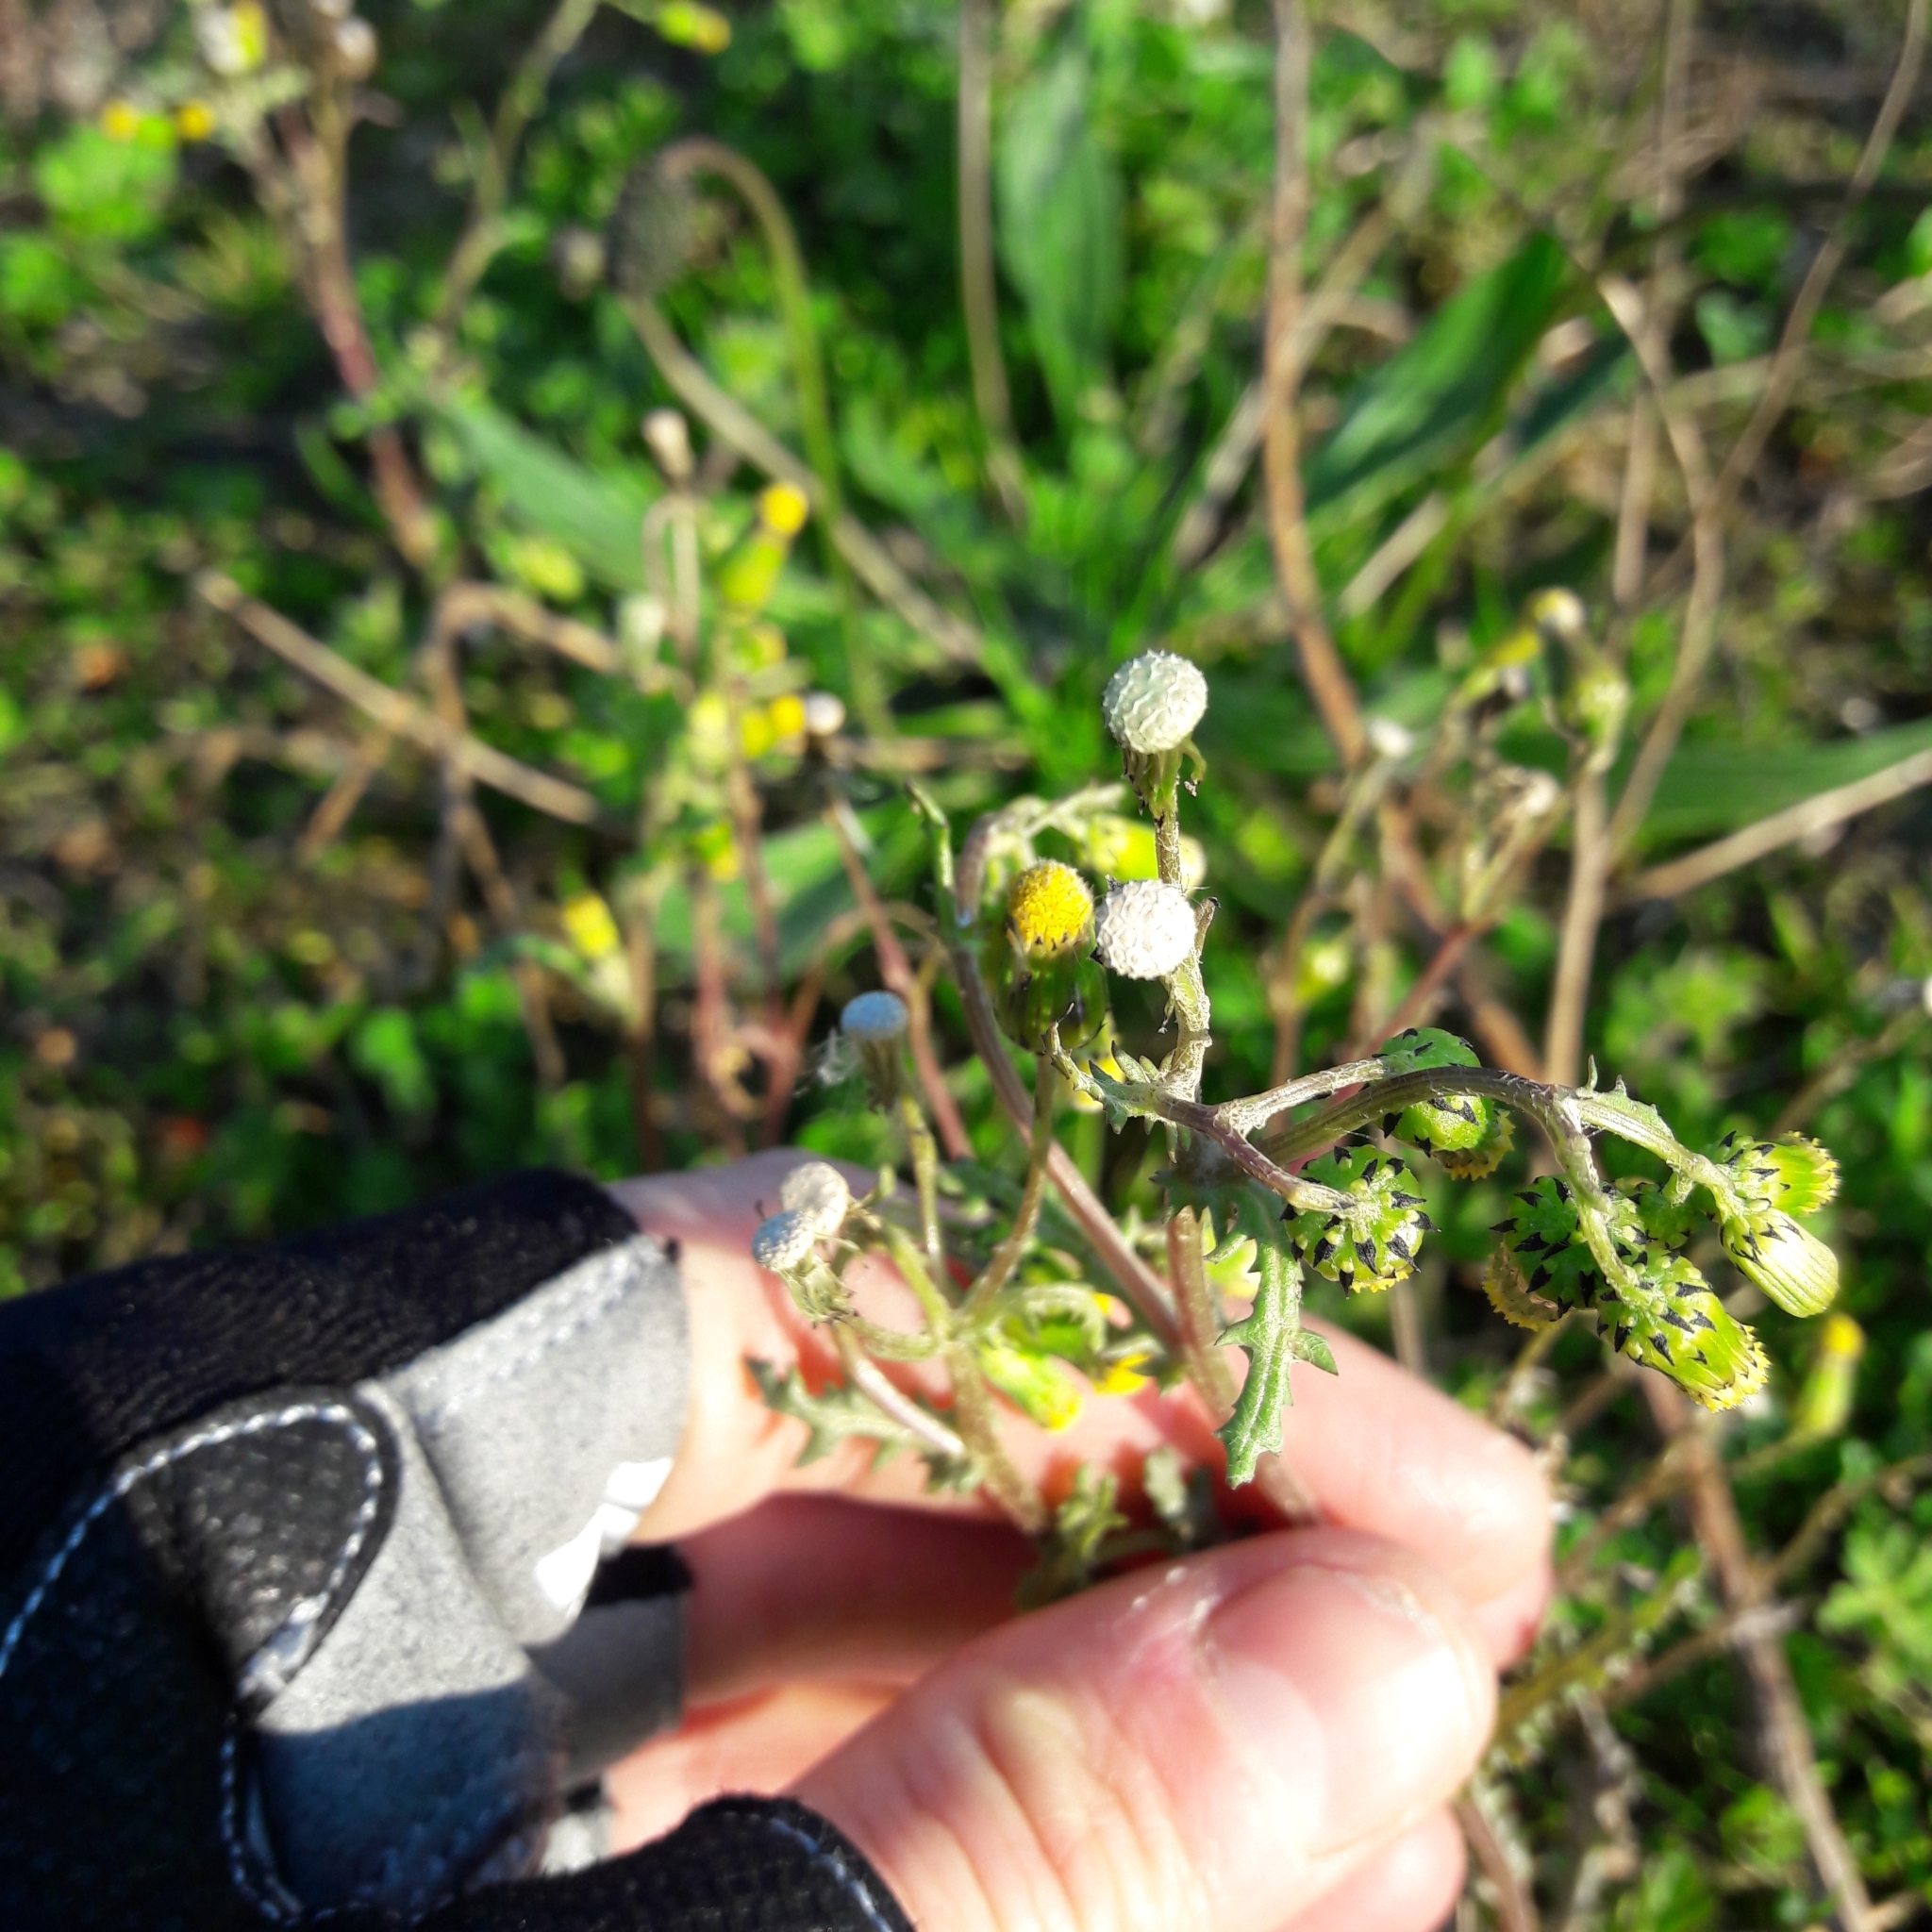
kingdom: Plantae
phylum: Tracheophyta
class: Magnoliopsida
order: Asterales
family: Asteraceae
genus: Senecio
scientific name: Senecio vulgaris
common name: Old-man-in-the-spring
